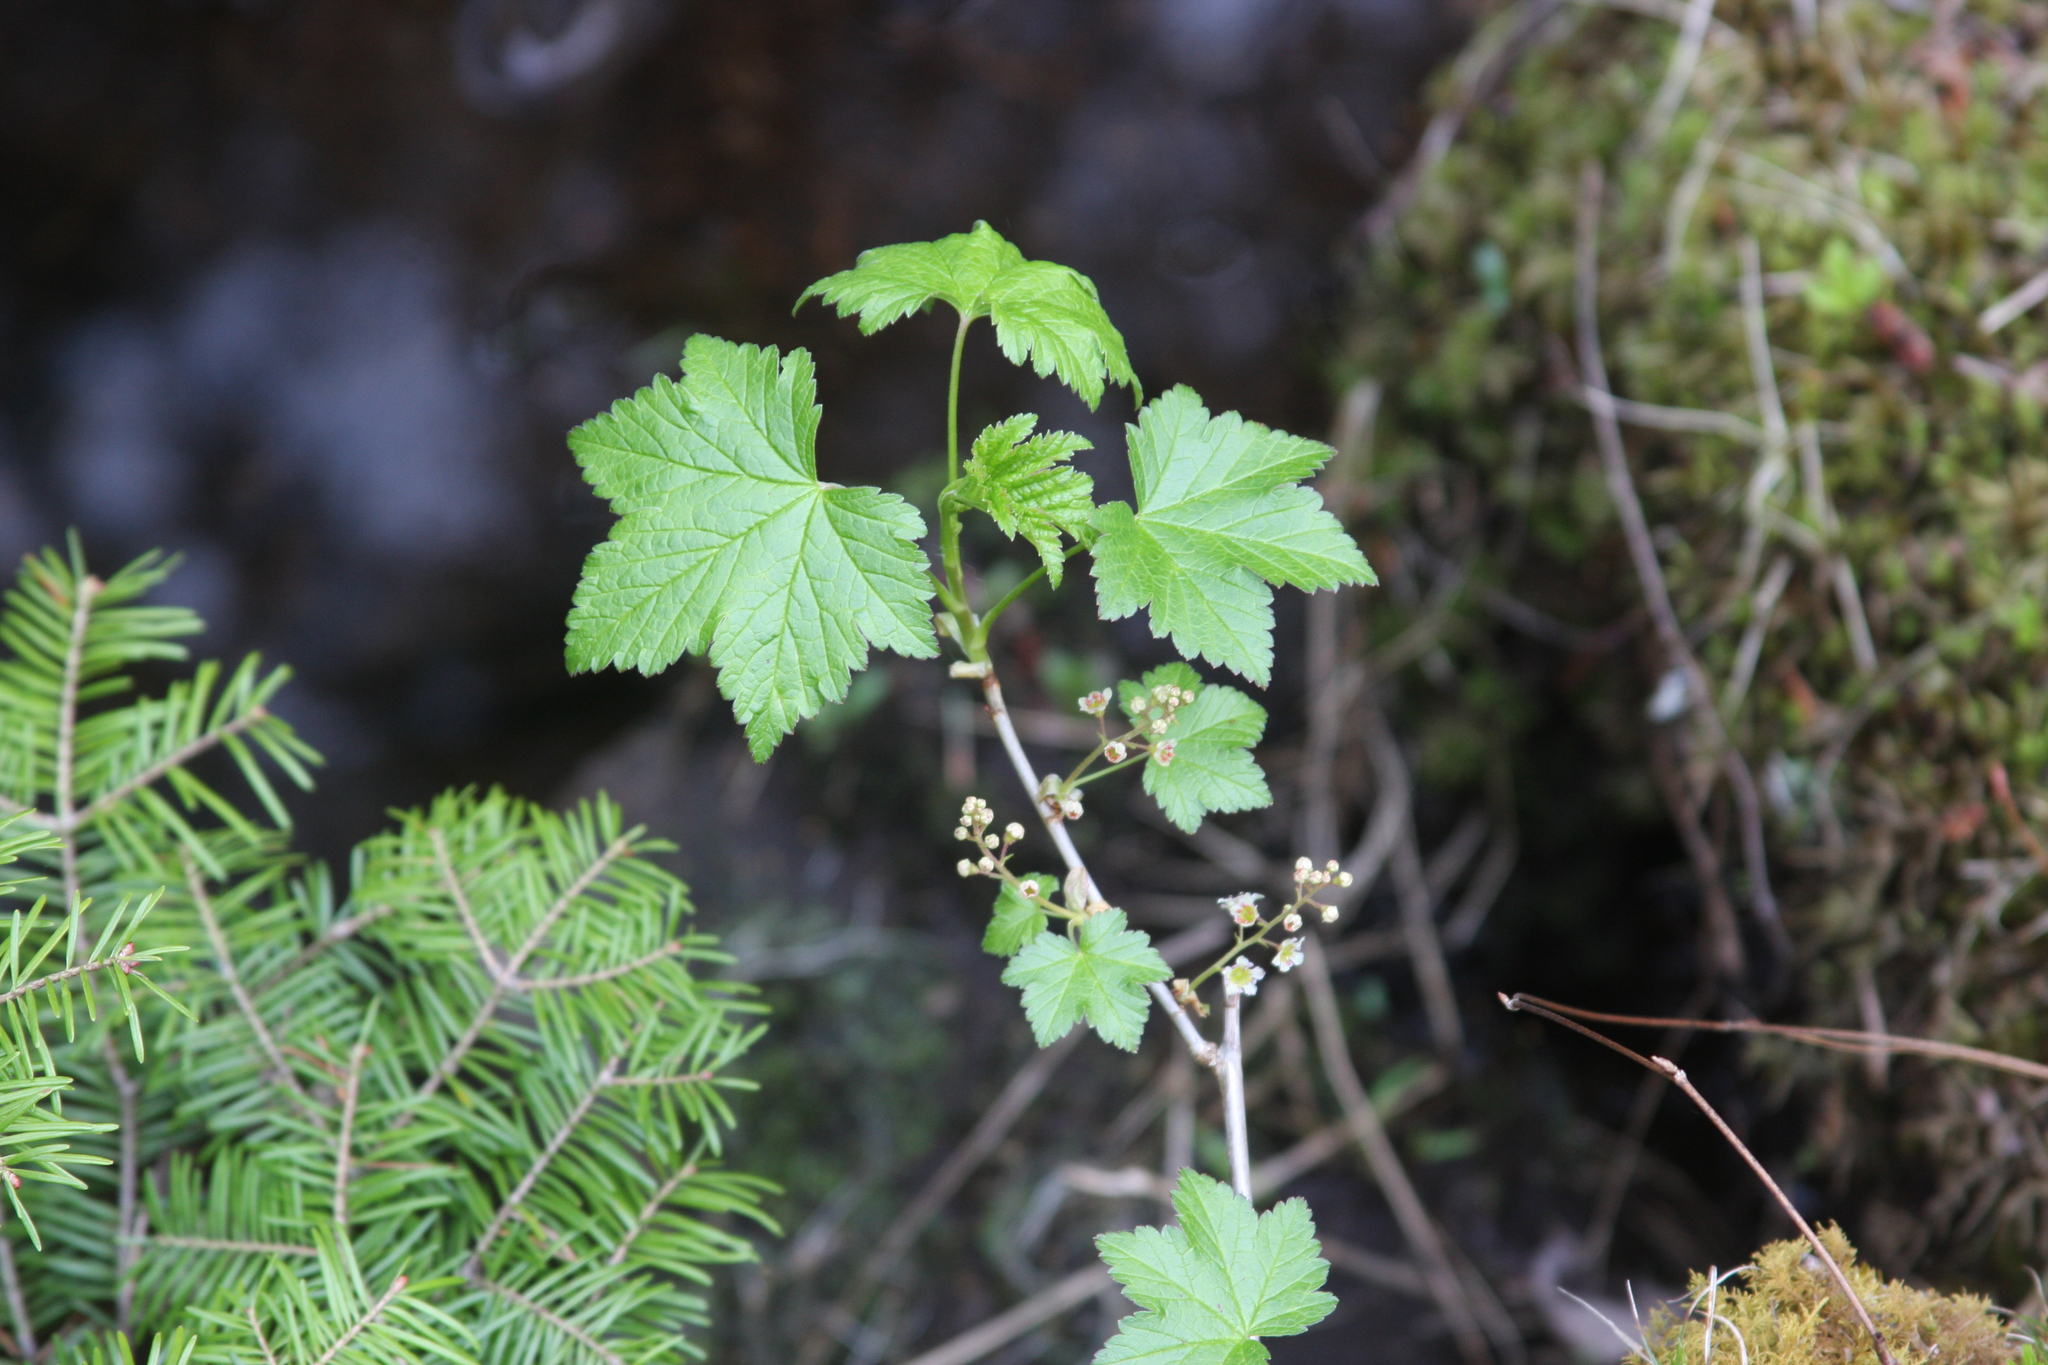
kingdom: Plantae
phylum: Tracheophyta
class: Magnoliopsida
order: Saxifragales
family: Grossulariaceae
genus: Ribes
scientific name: Ribes glandulosum
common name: Skunk currant
